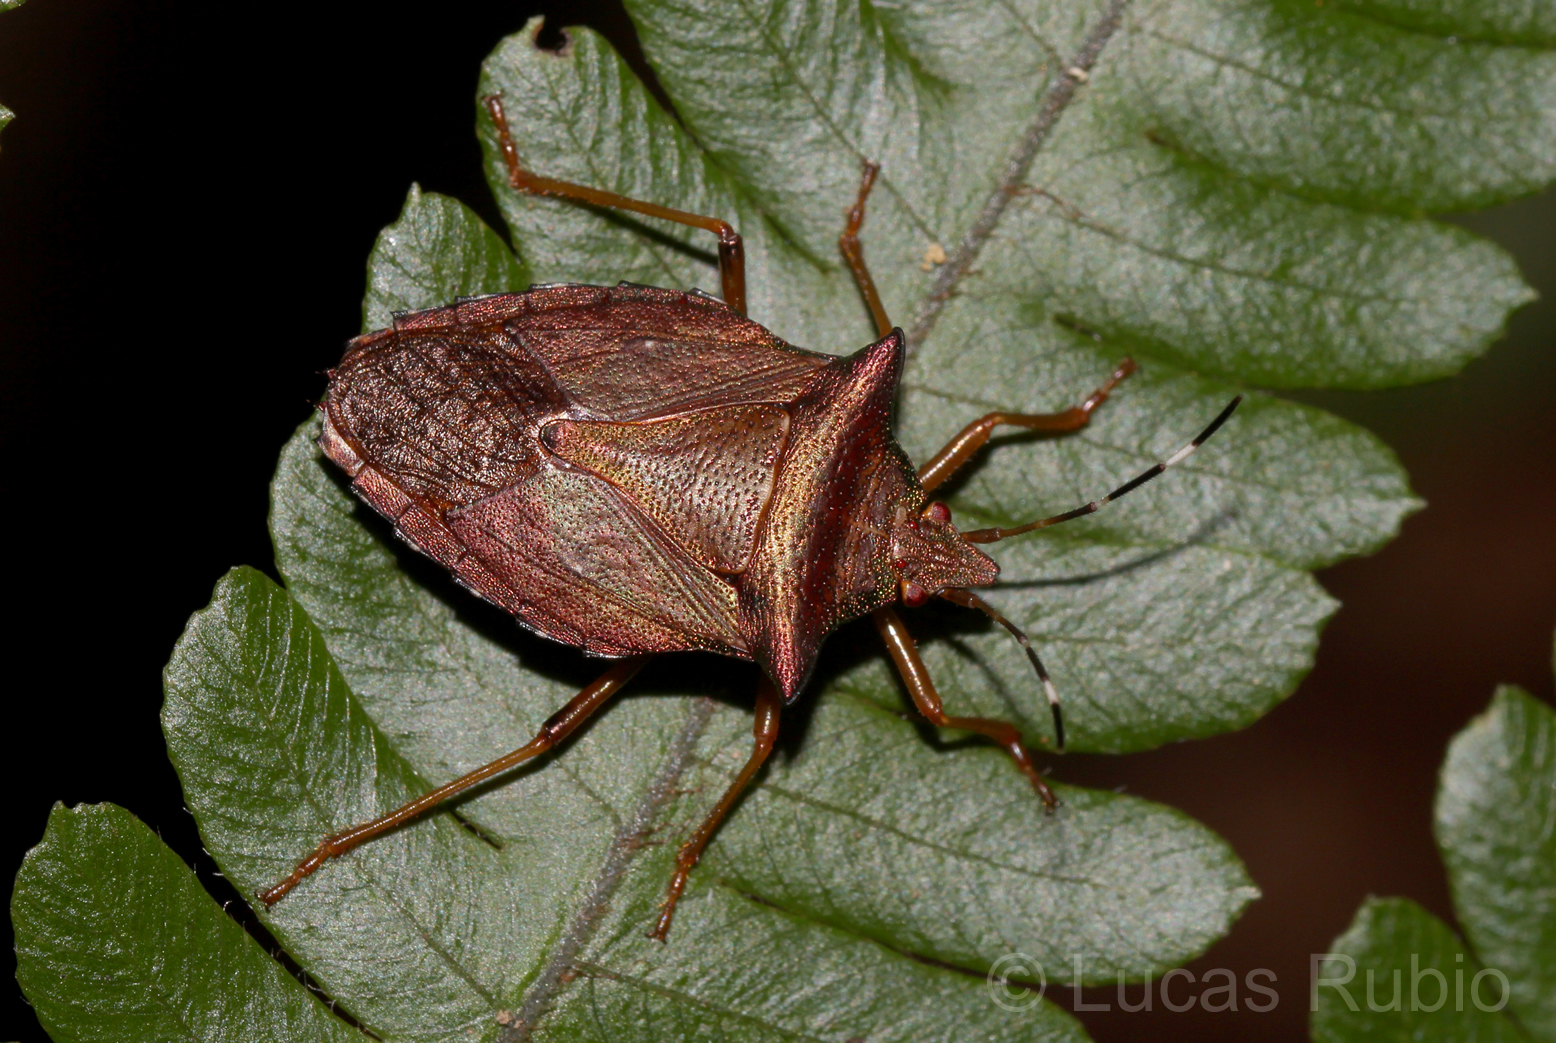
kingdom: Animalia
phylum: Arthropoda
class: Insecta
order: Hemiptera
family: Pentatomidae
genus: Myota
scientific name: Myota aerea
